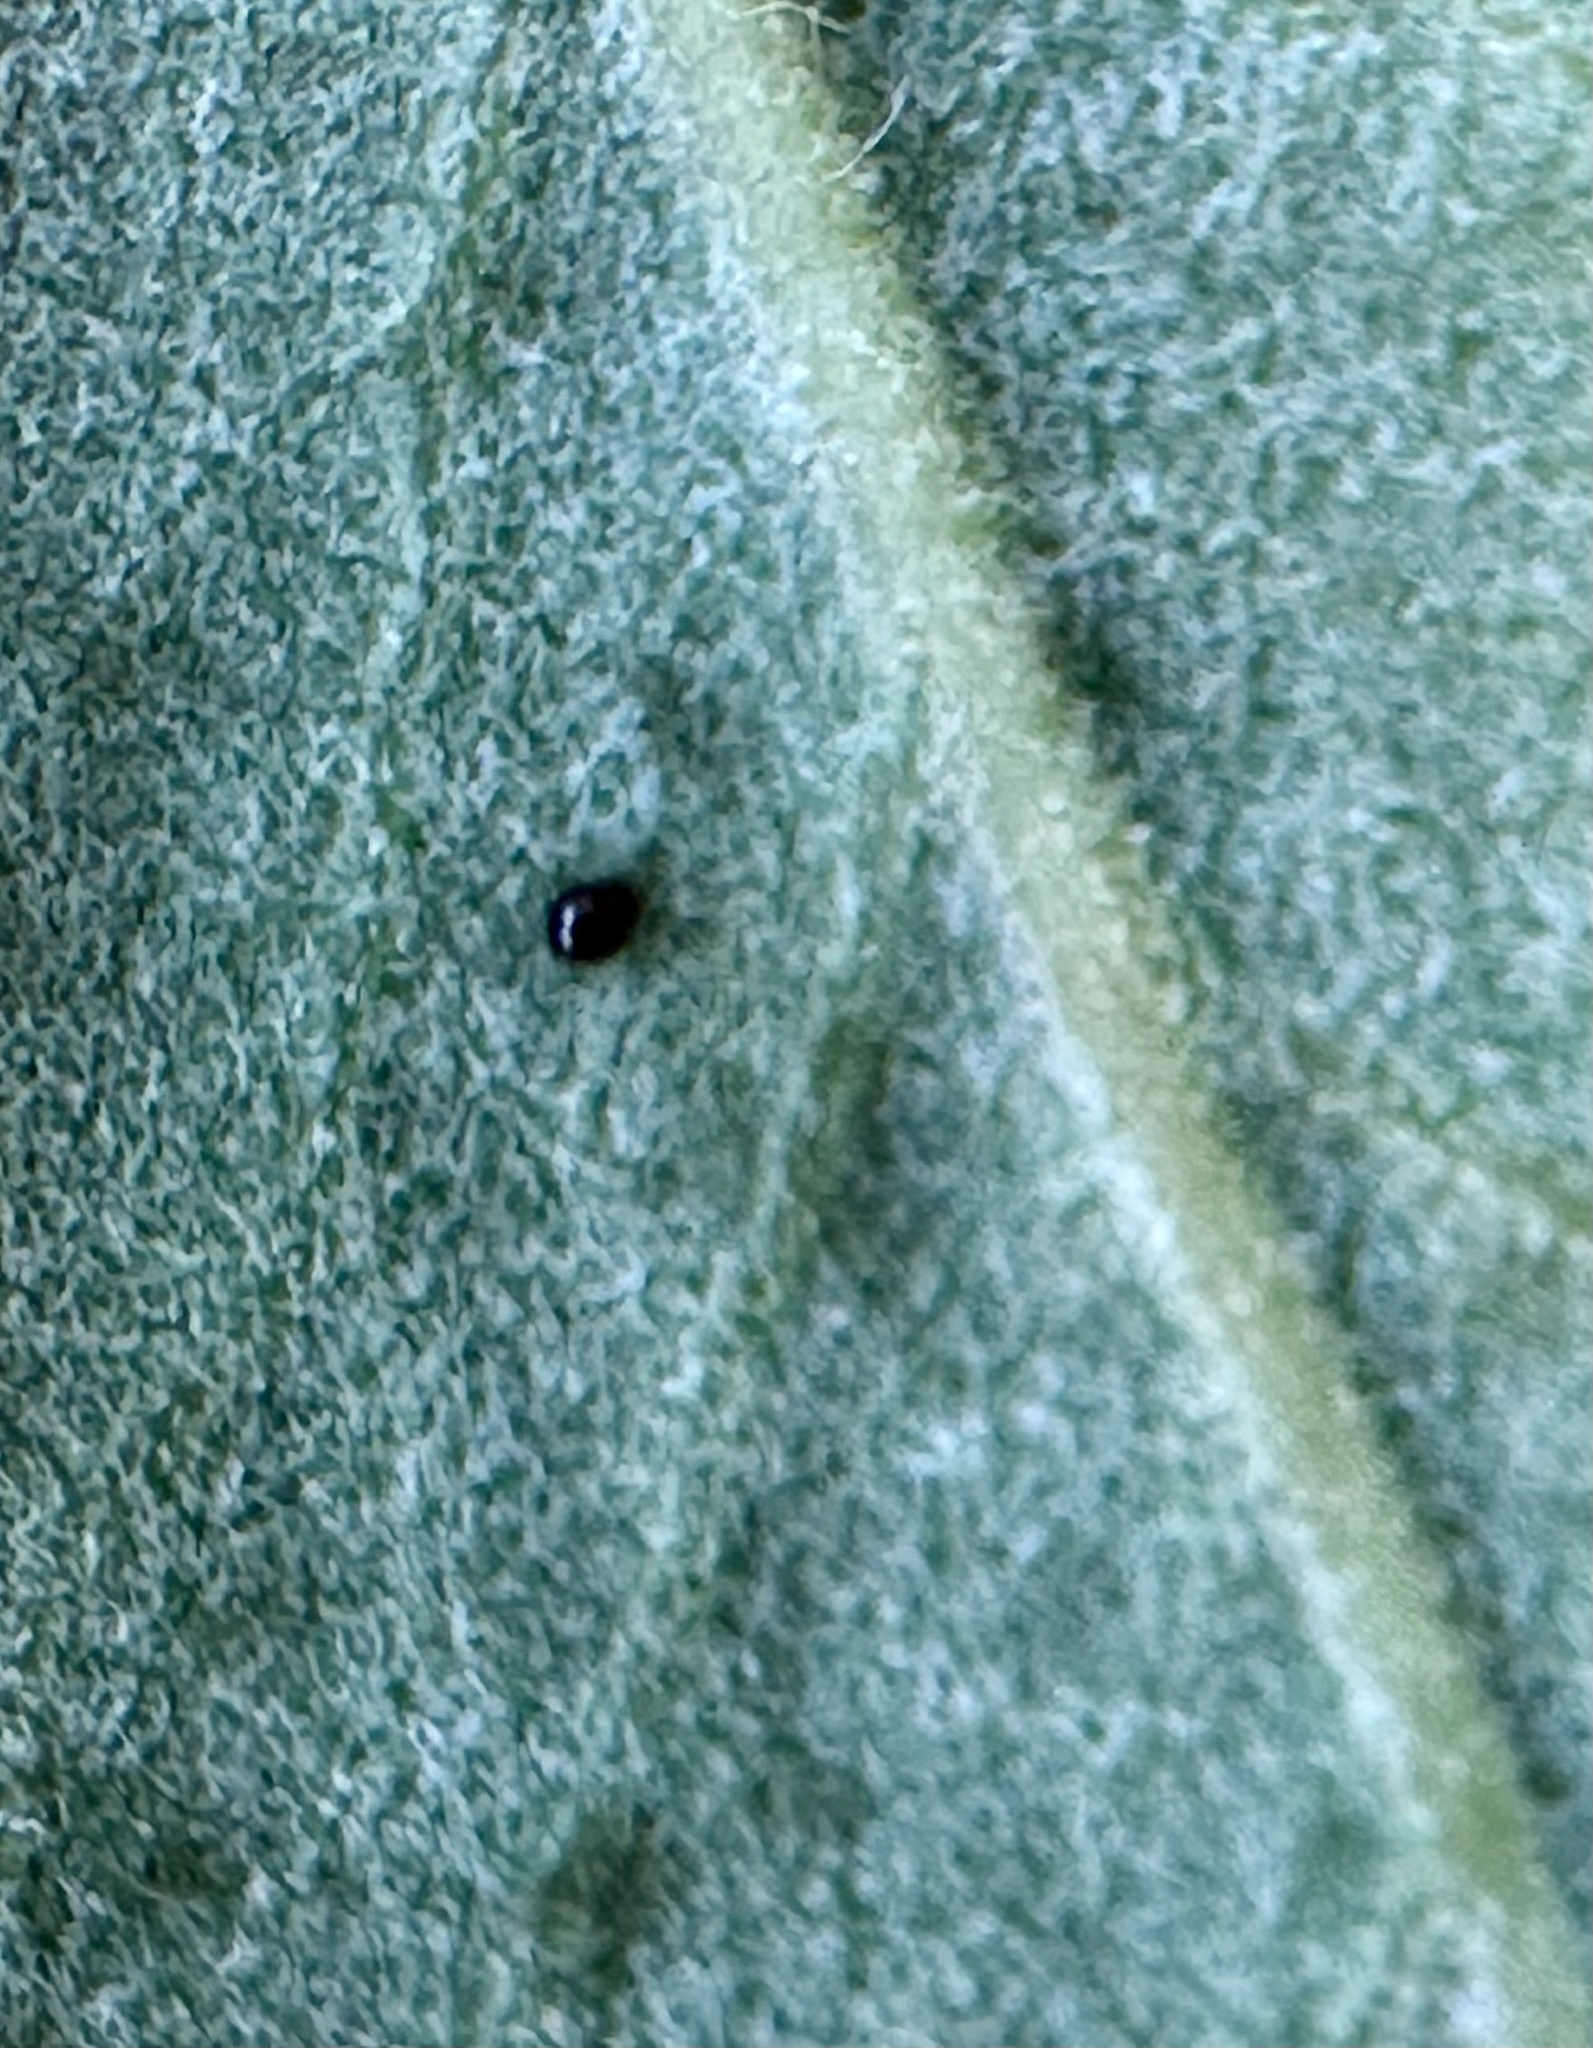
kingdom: Plantae
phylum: Tracheophyta
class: Magnoliopsida
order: Garryales
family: Garryaceae
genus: Garrya
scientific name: Garrya elliptica
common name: Silk-tassel
